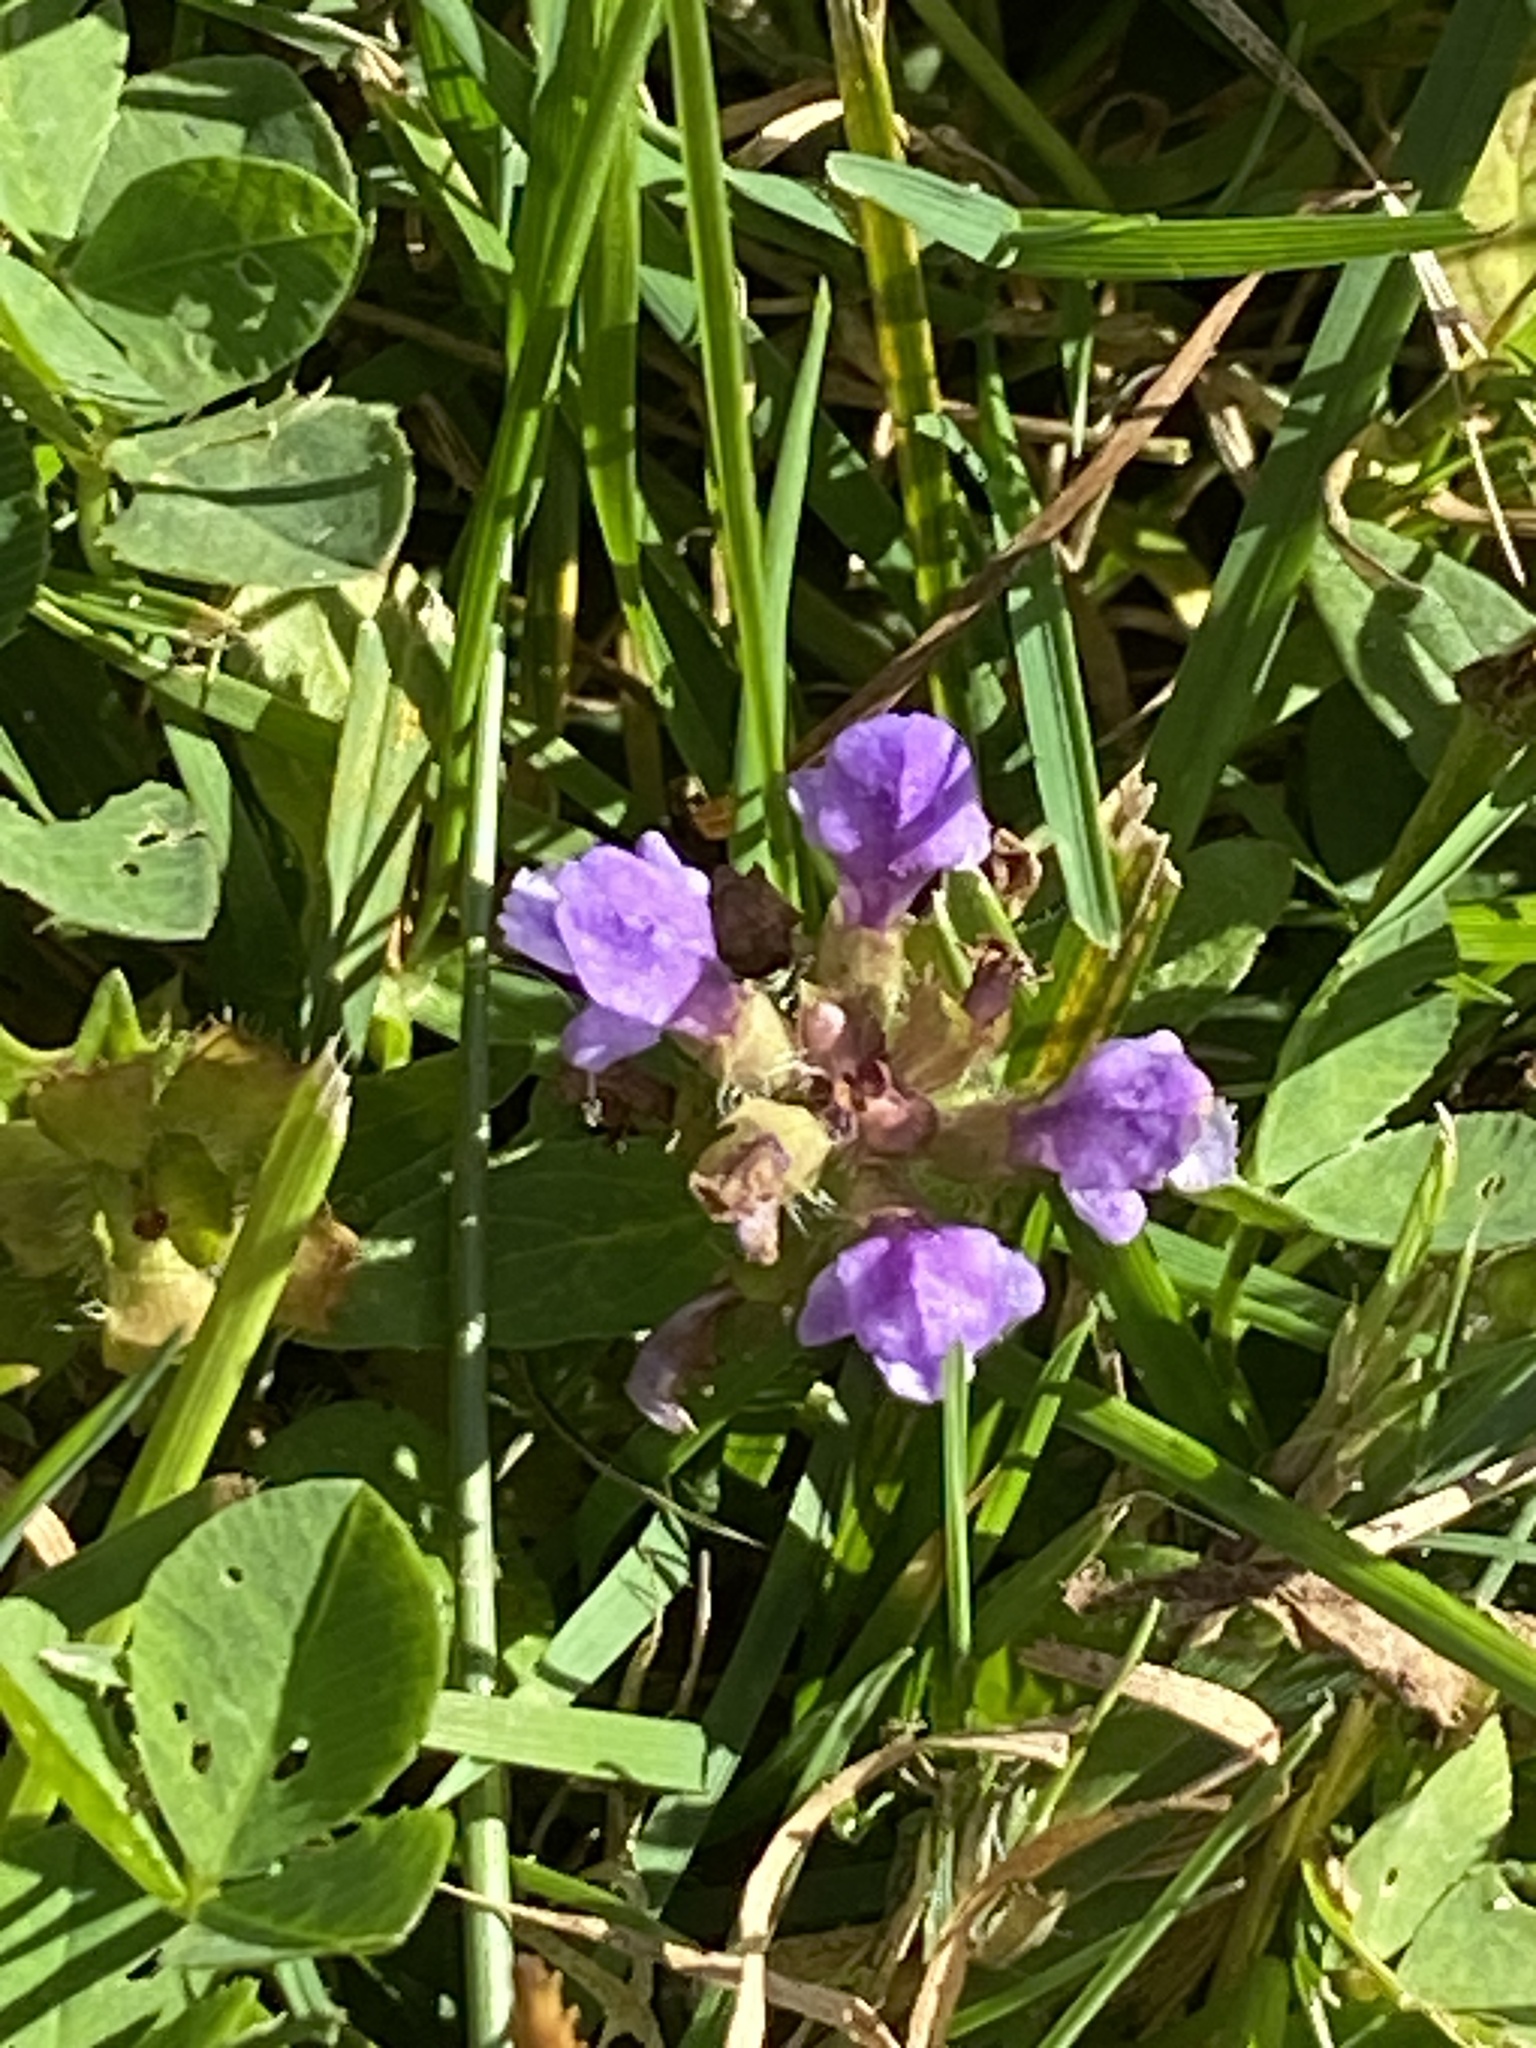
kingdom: Plantae
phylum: Tracheophyta
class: Magnoliopsida
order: Lamiales
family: Lamiaceae
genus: Prunella
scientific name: Prunella vulgaris
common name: Heal-all
